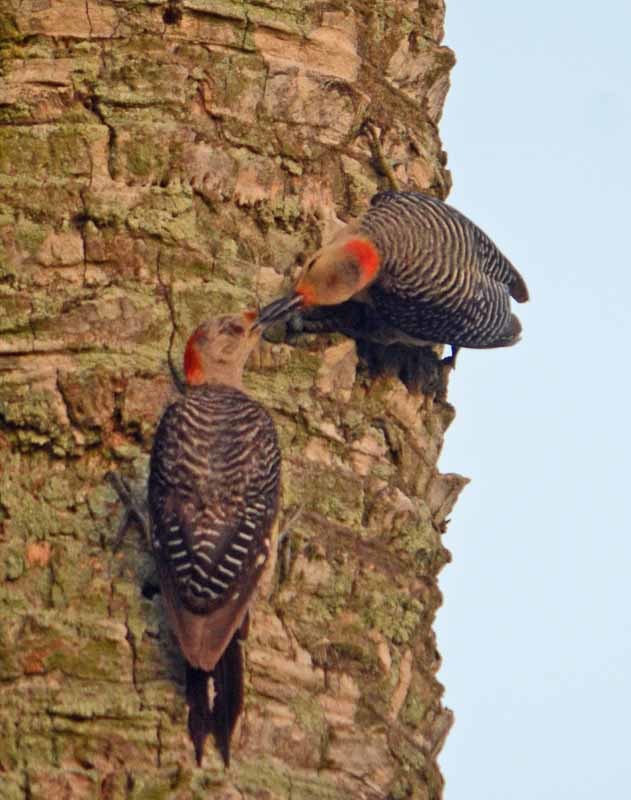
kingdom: Animalia
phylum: Chordata
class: Aves
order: Piciformes
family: Picidae
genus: Melanerpes
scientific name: Melanerpes aurifrons
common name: Golden-fronted woodpecker
